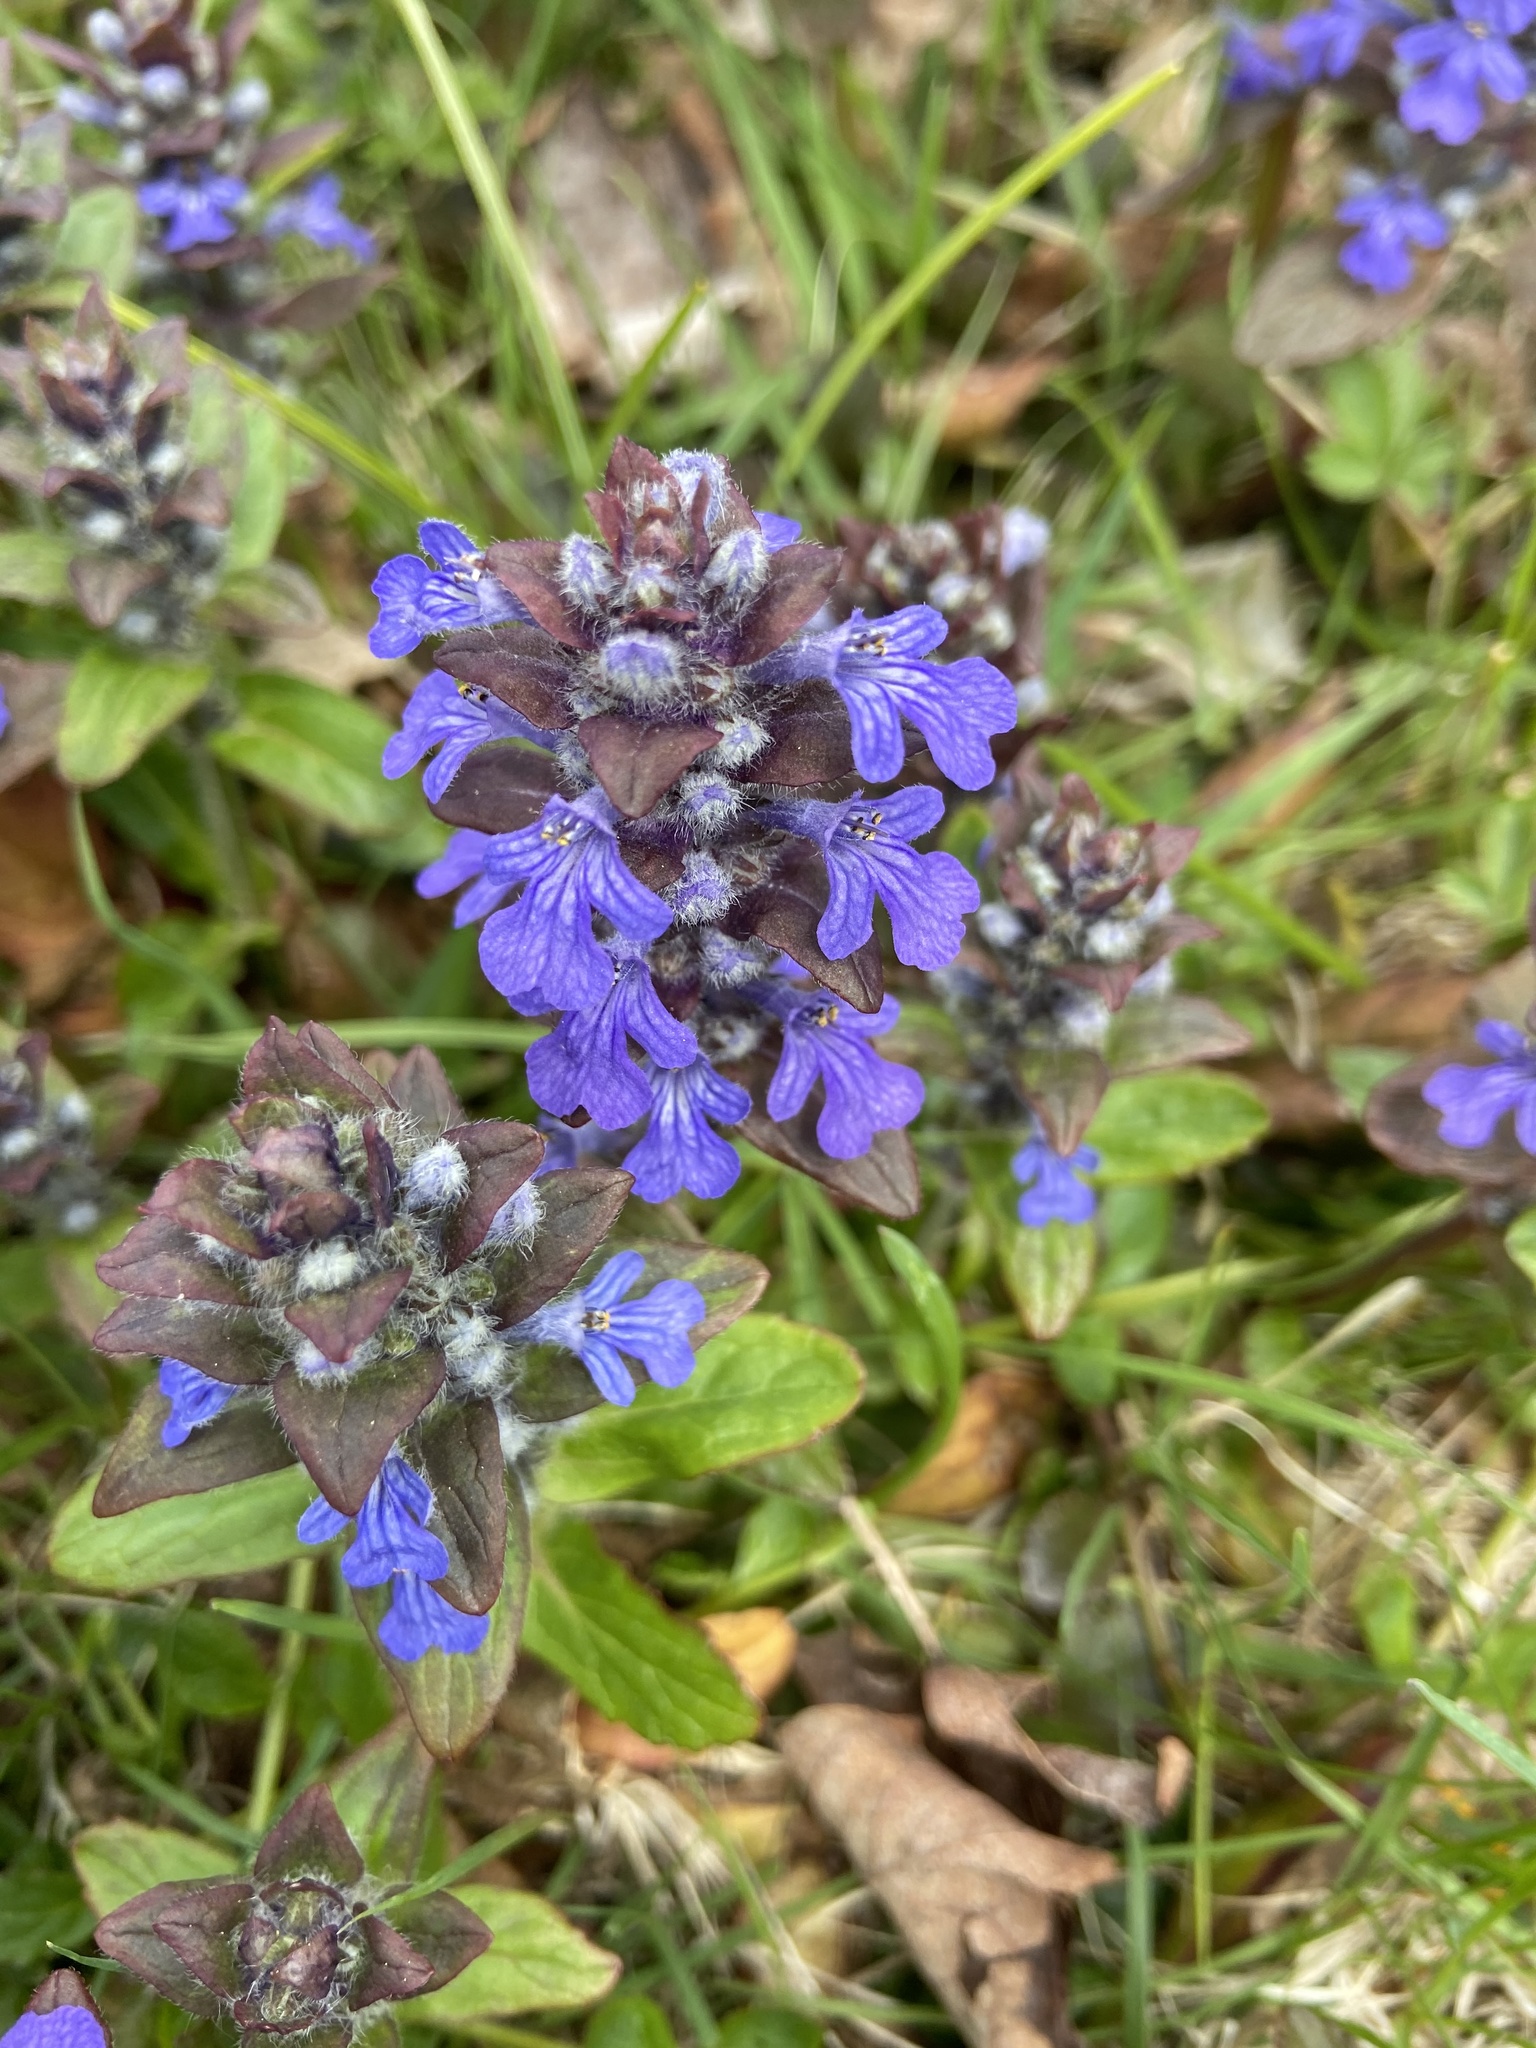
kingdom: Plantae
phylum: Tracheophyta
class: Magnoliopsida
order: Lamiales
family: Lamiaceae
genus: Ajuga
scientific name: Ajuga reptans
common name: Bugle
